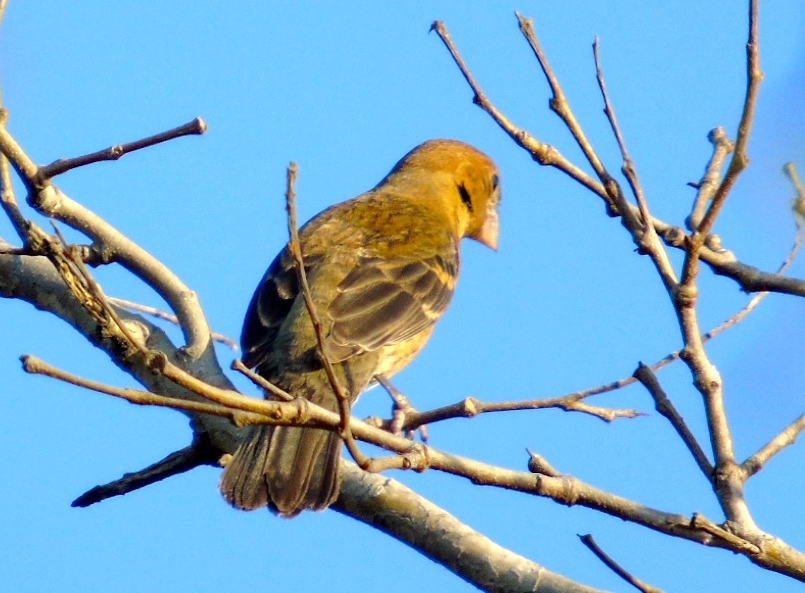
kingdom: Animalia
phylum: Chordata
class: Aves
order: Passeriformes
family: Cardinalidae
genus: Passerina
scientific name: Passerina caerulea
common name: Blue grosbeak
